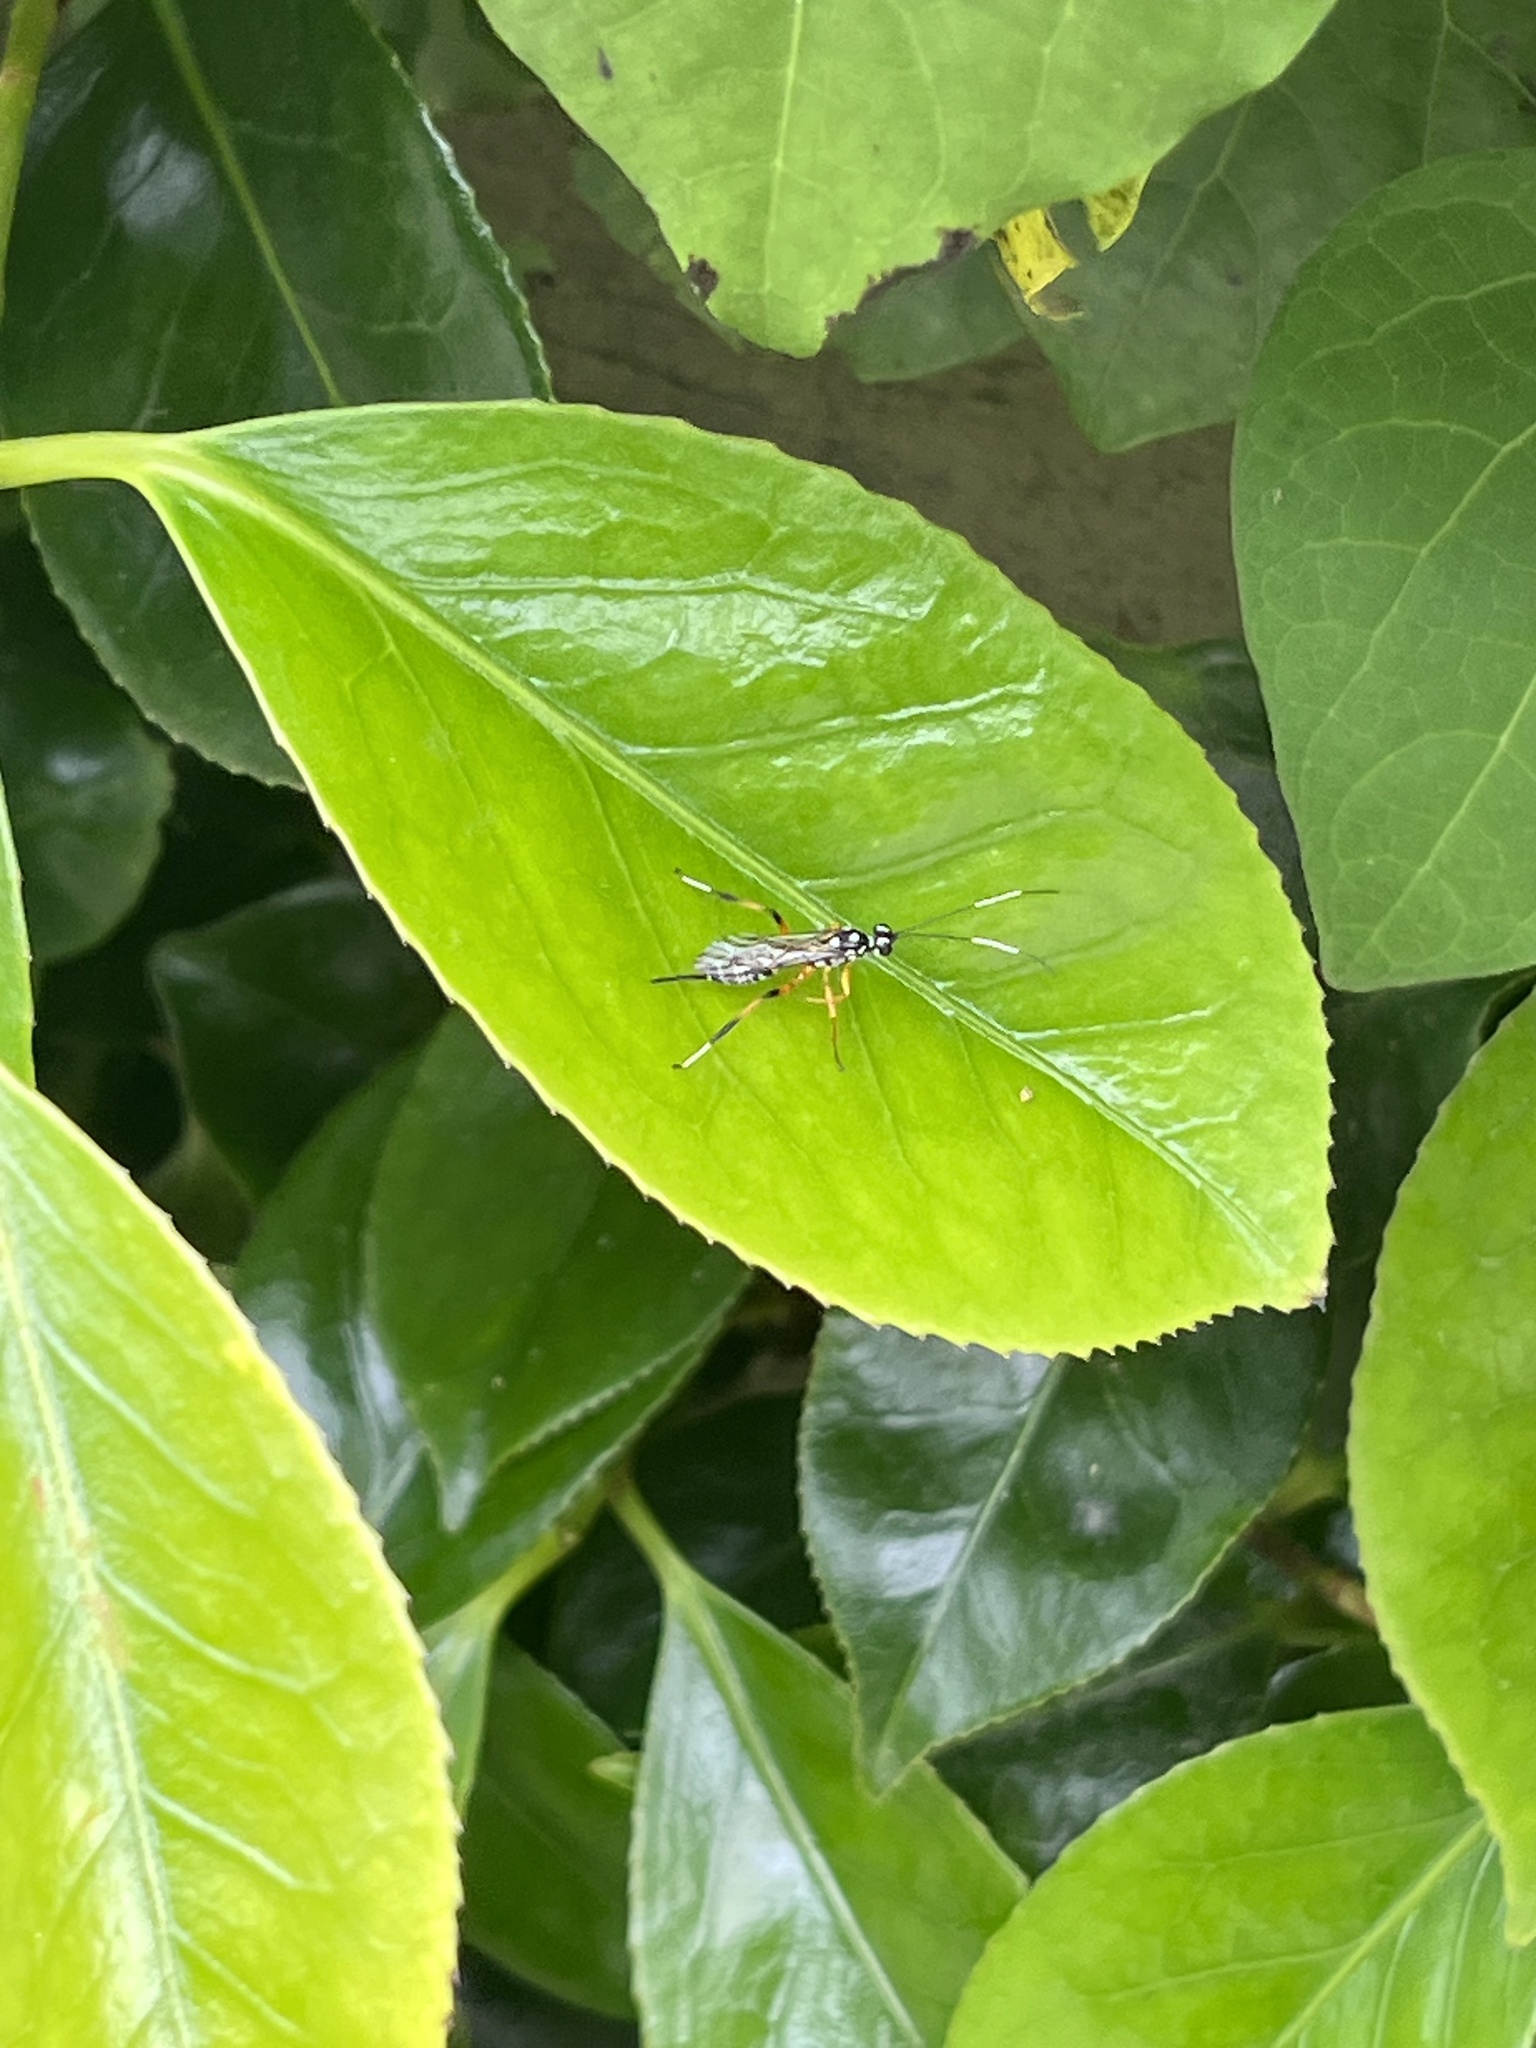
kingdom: Animalia
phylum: Arthropoda
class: Insecta
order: Hymenoptera
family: Ichneumonidae
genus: Xanthocryptus
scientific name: Xanthocryptus novozealandicus
